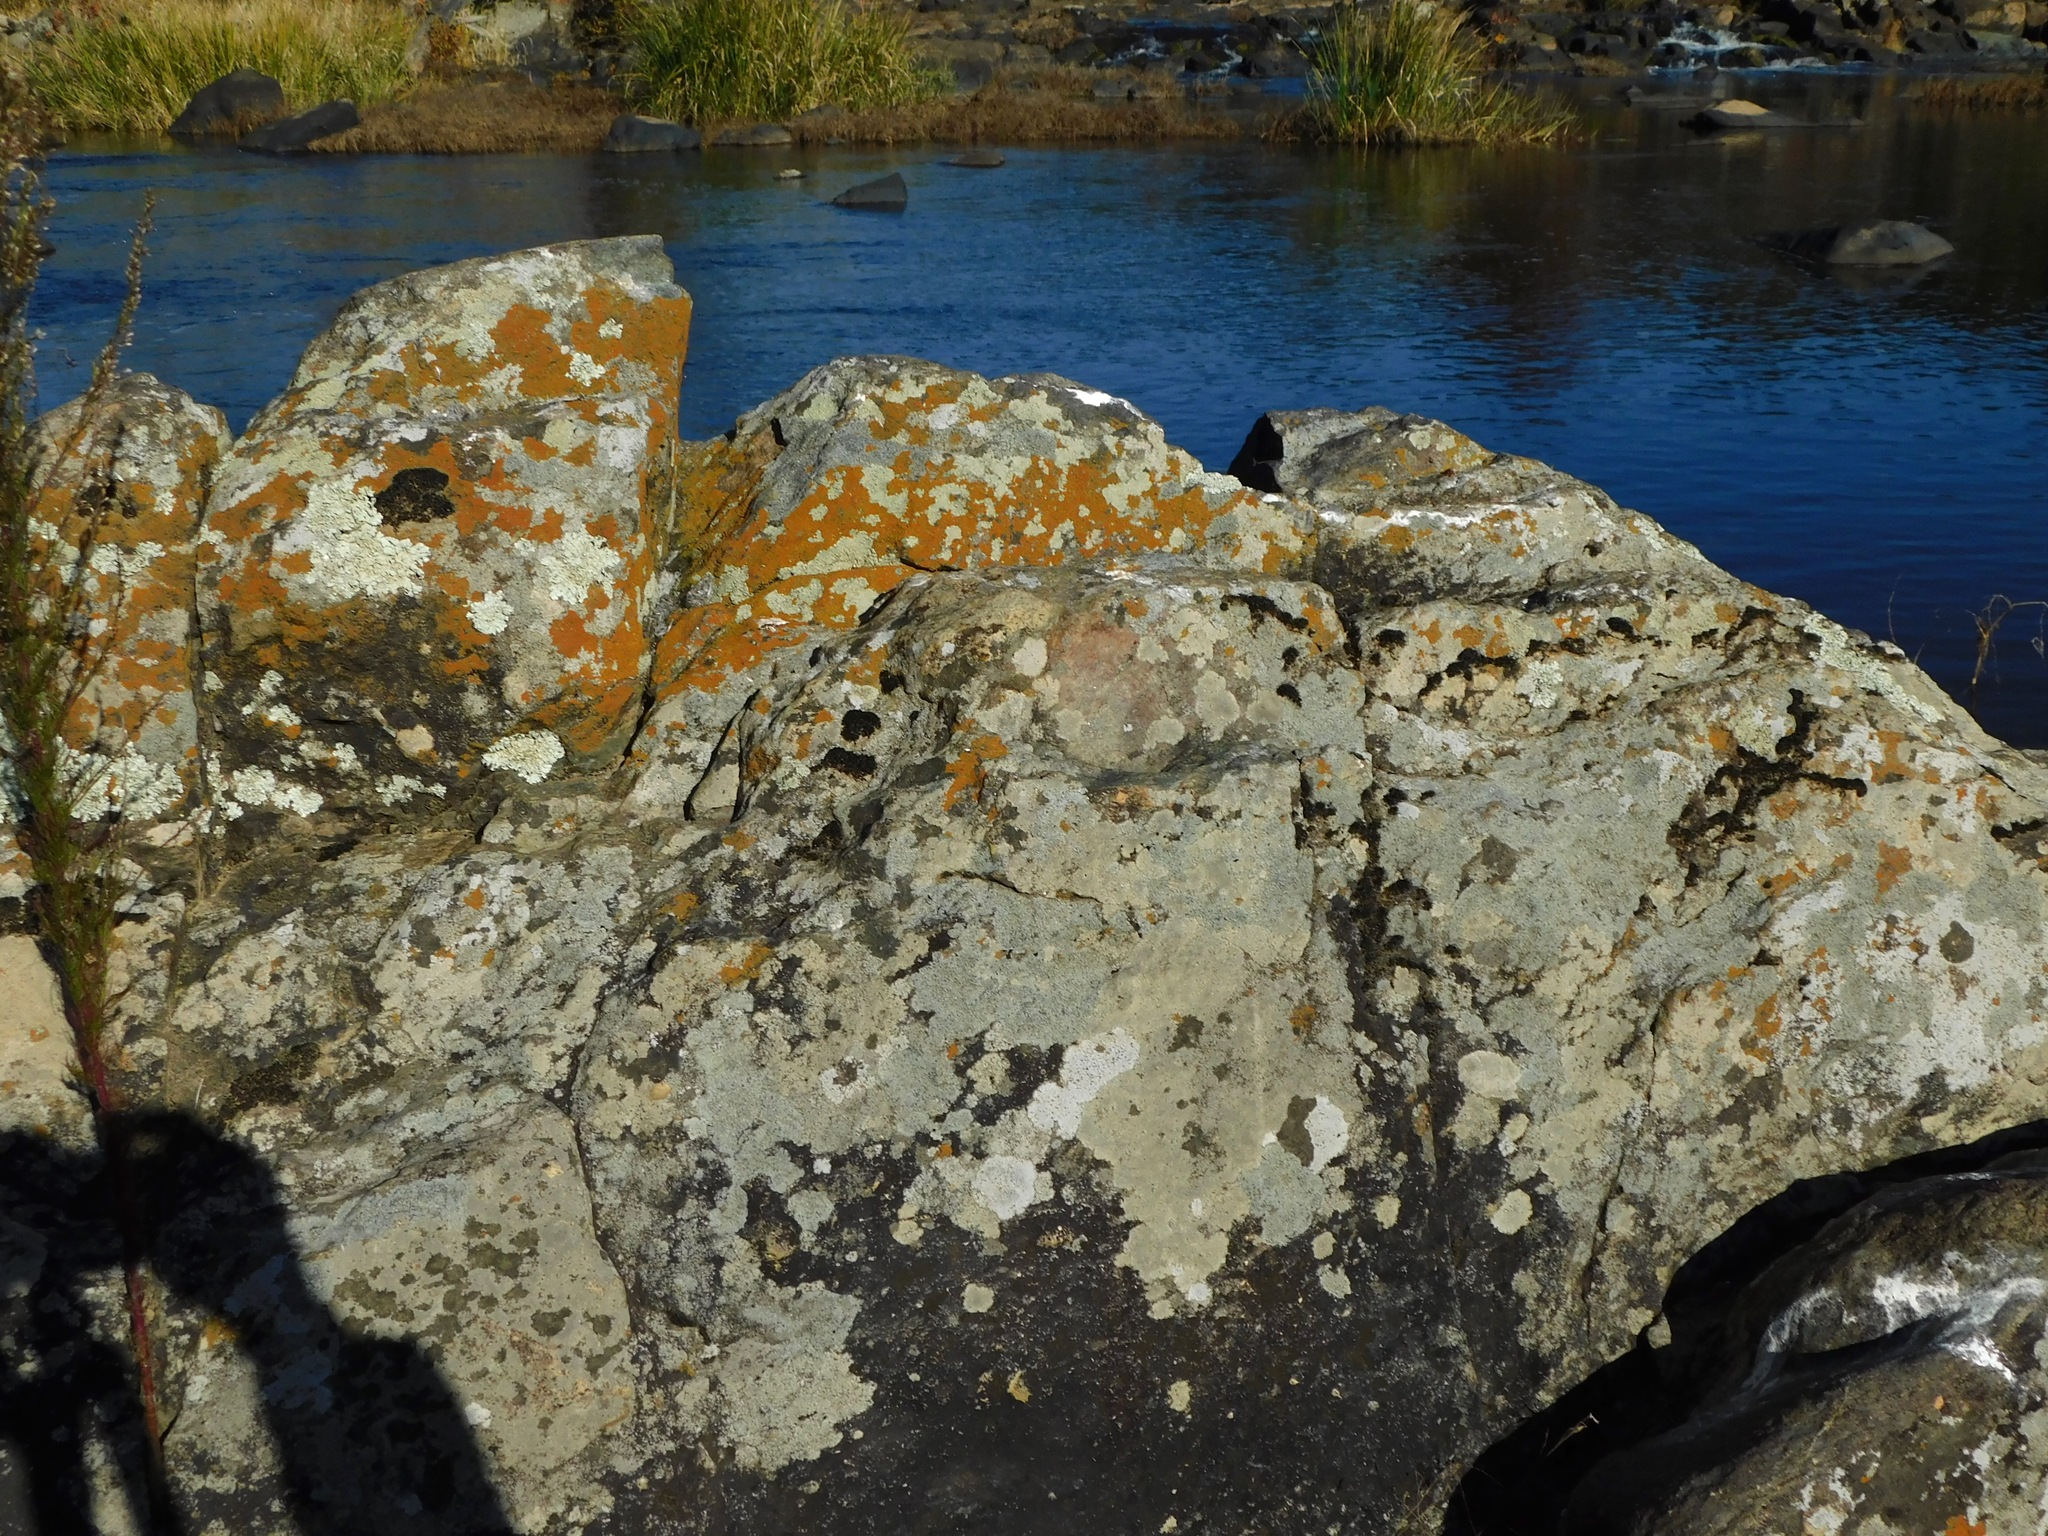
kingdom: Fungi
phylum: Ascomycota
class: Lecanoromycetes
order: Teloschistales
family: Teloschistaceae
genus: Squamulea
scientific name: Squamulea subsoluta
